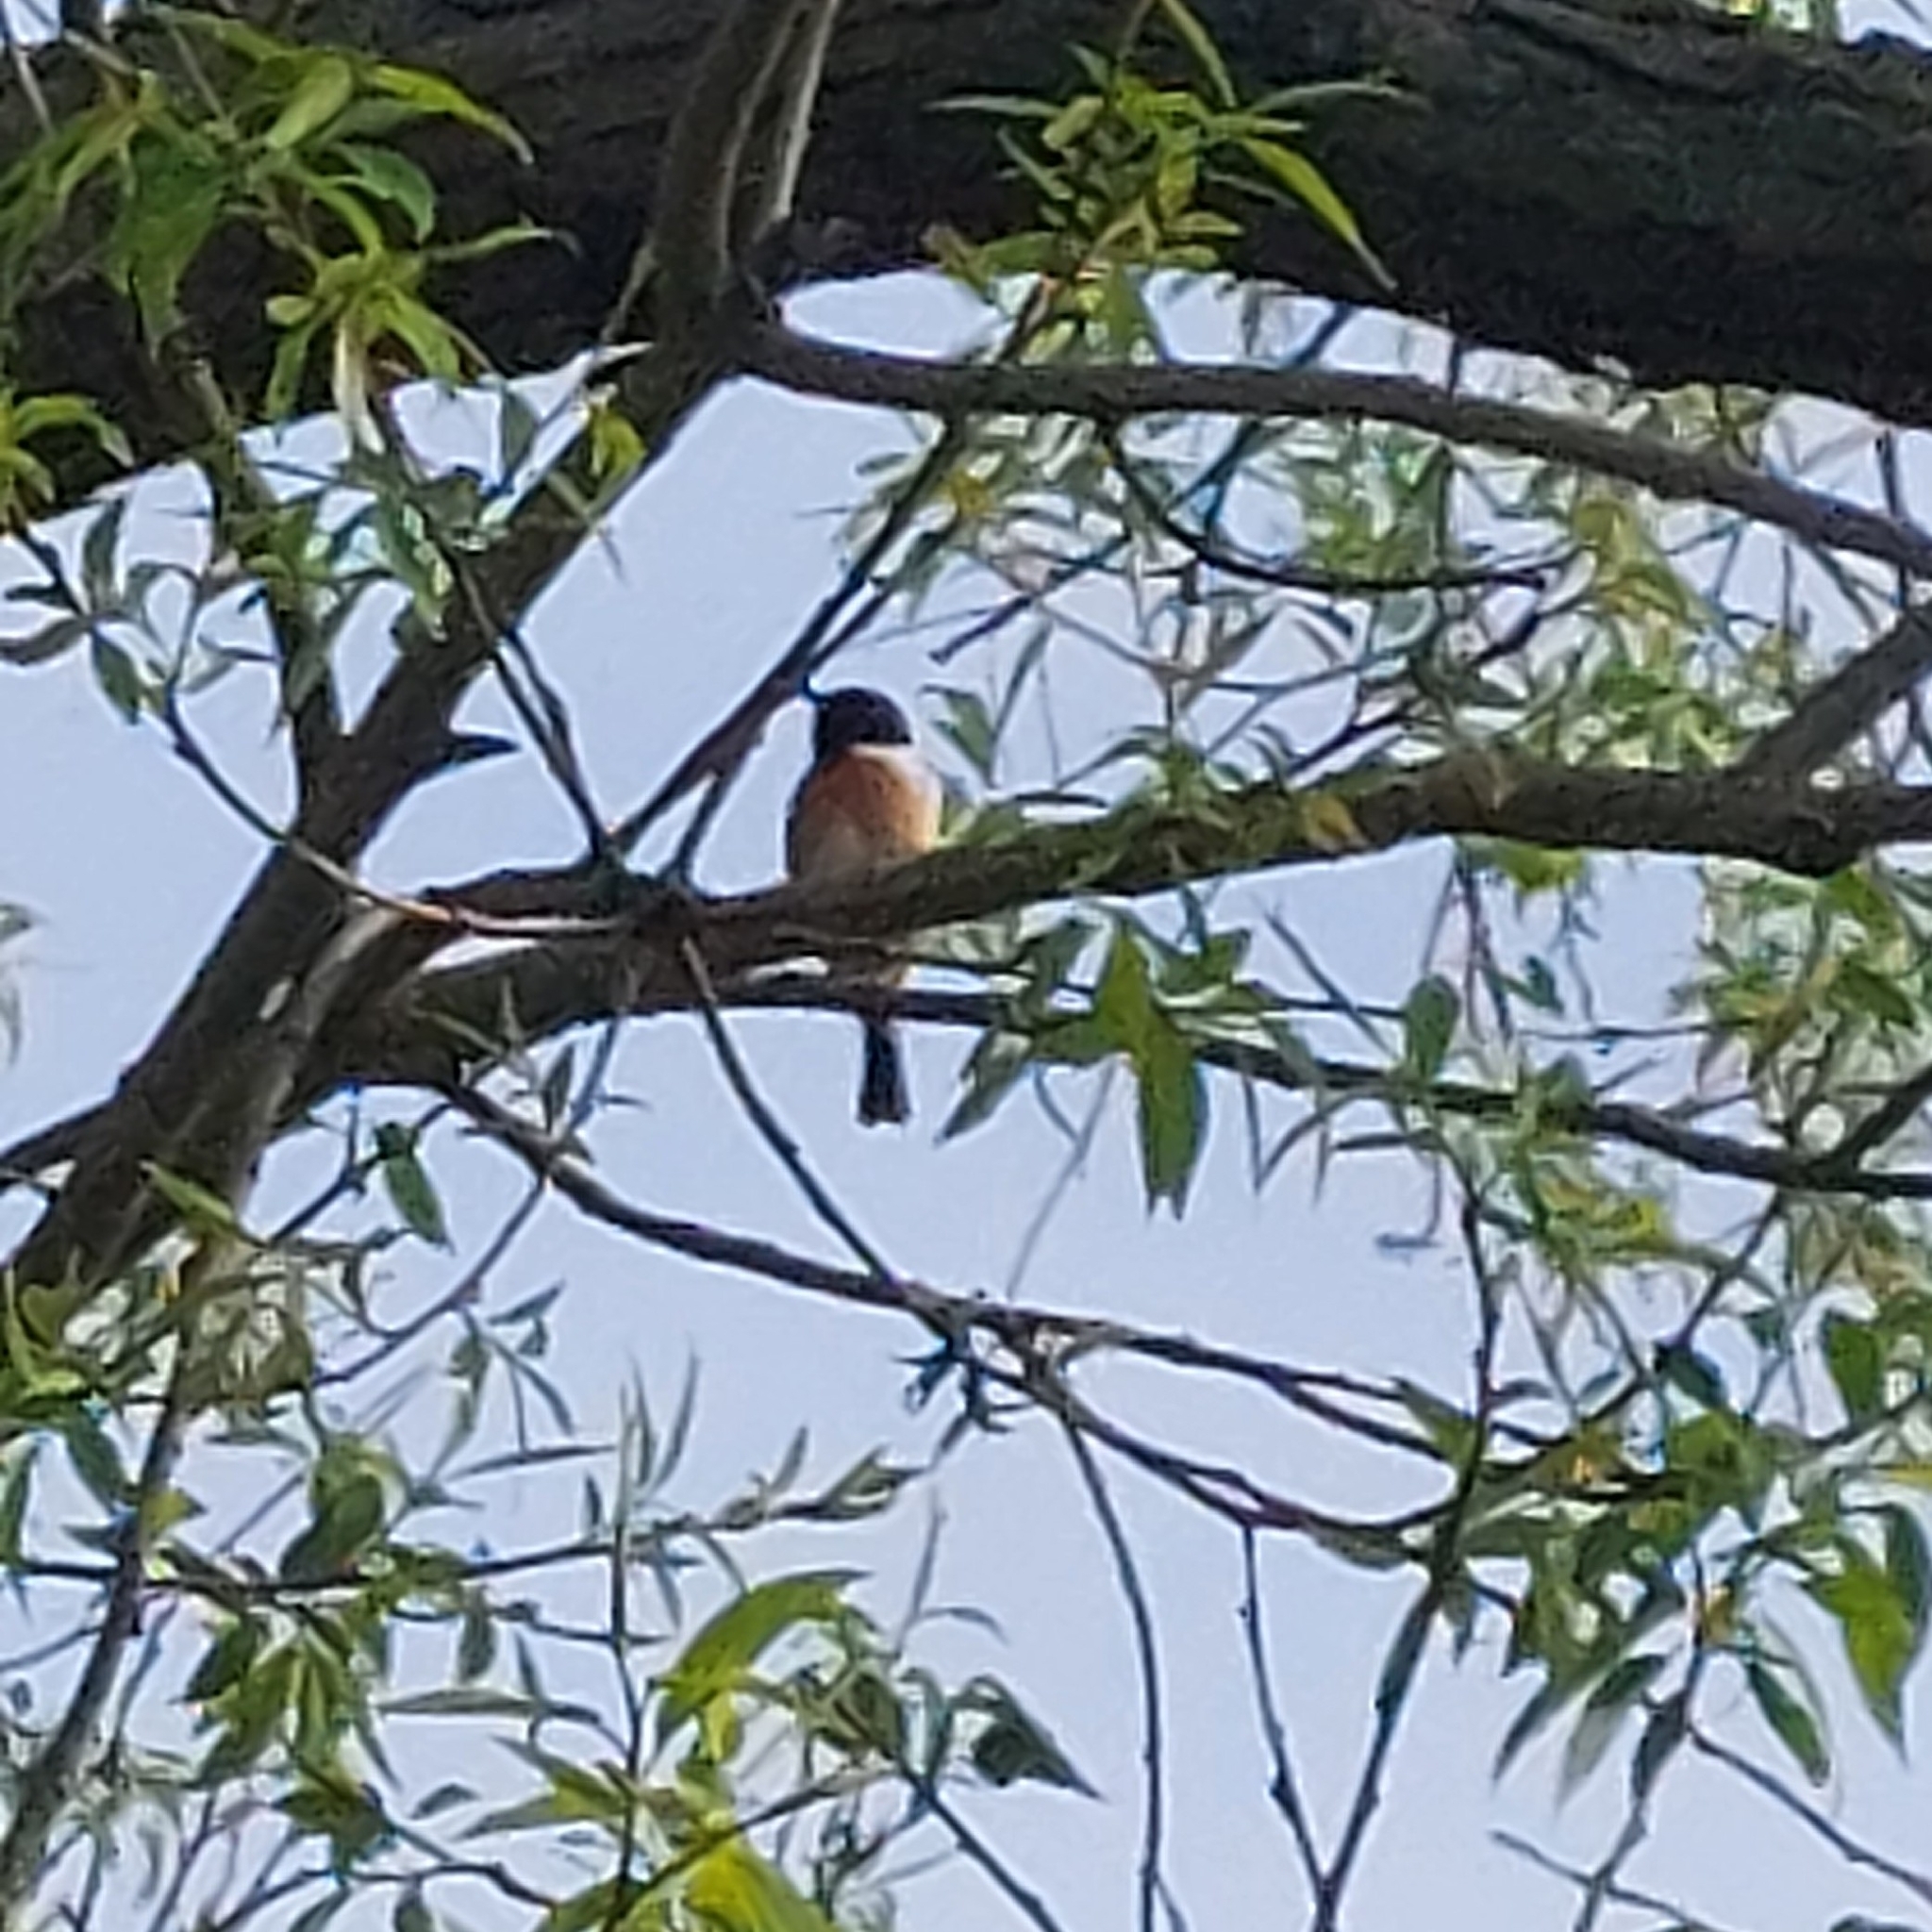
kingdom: Animalia
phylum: Chordata
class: Aves
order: Passeriformes
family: Muscicapidae
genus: Saxicola
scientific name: Saxicola rubicola
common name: European stonechat
